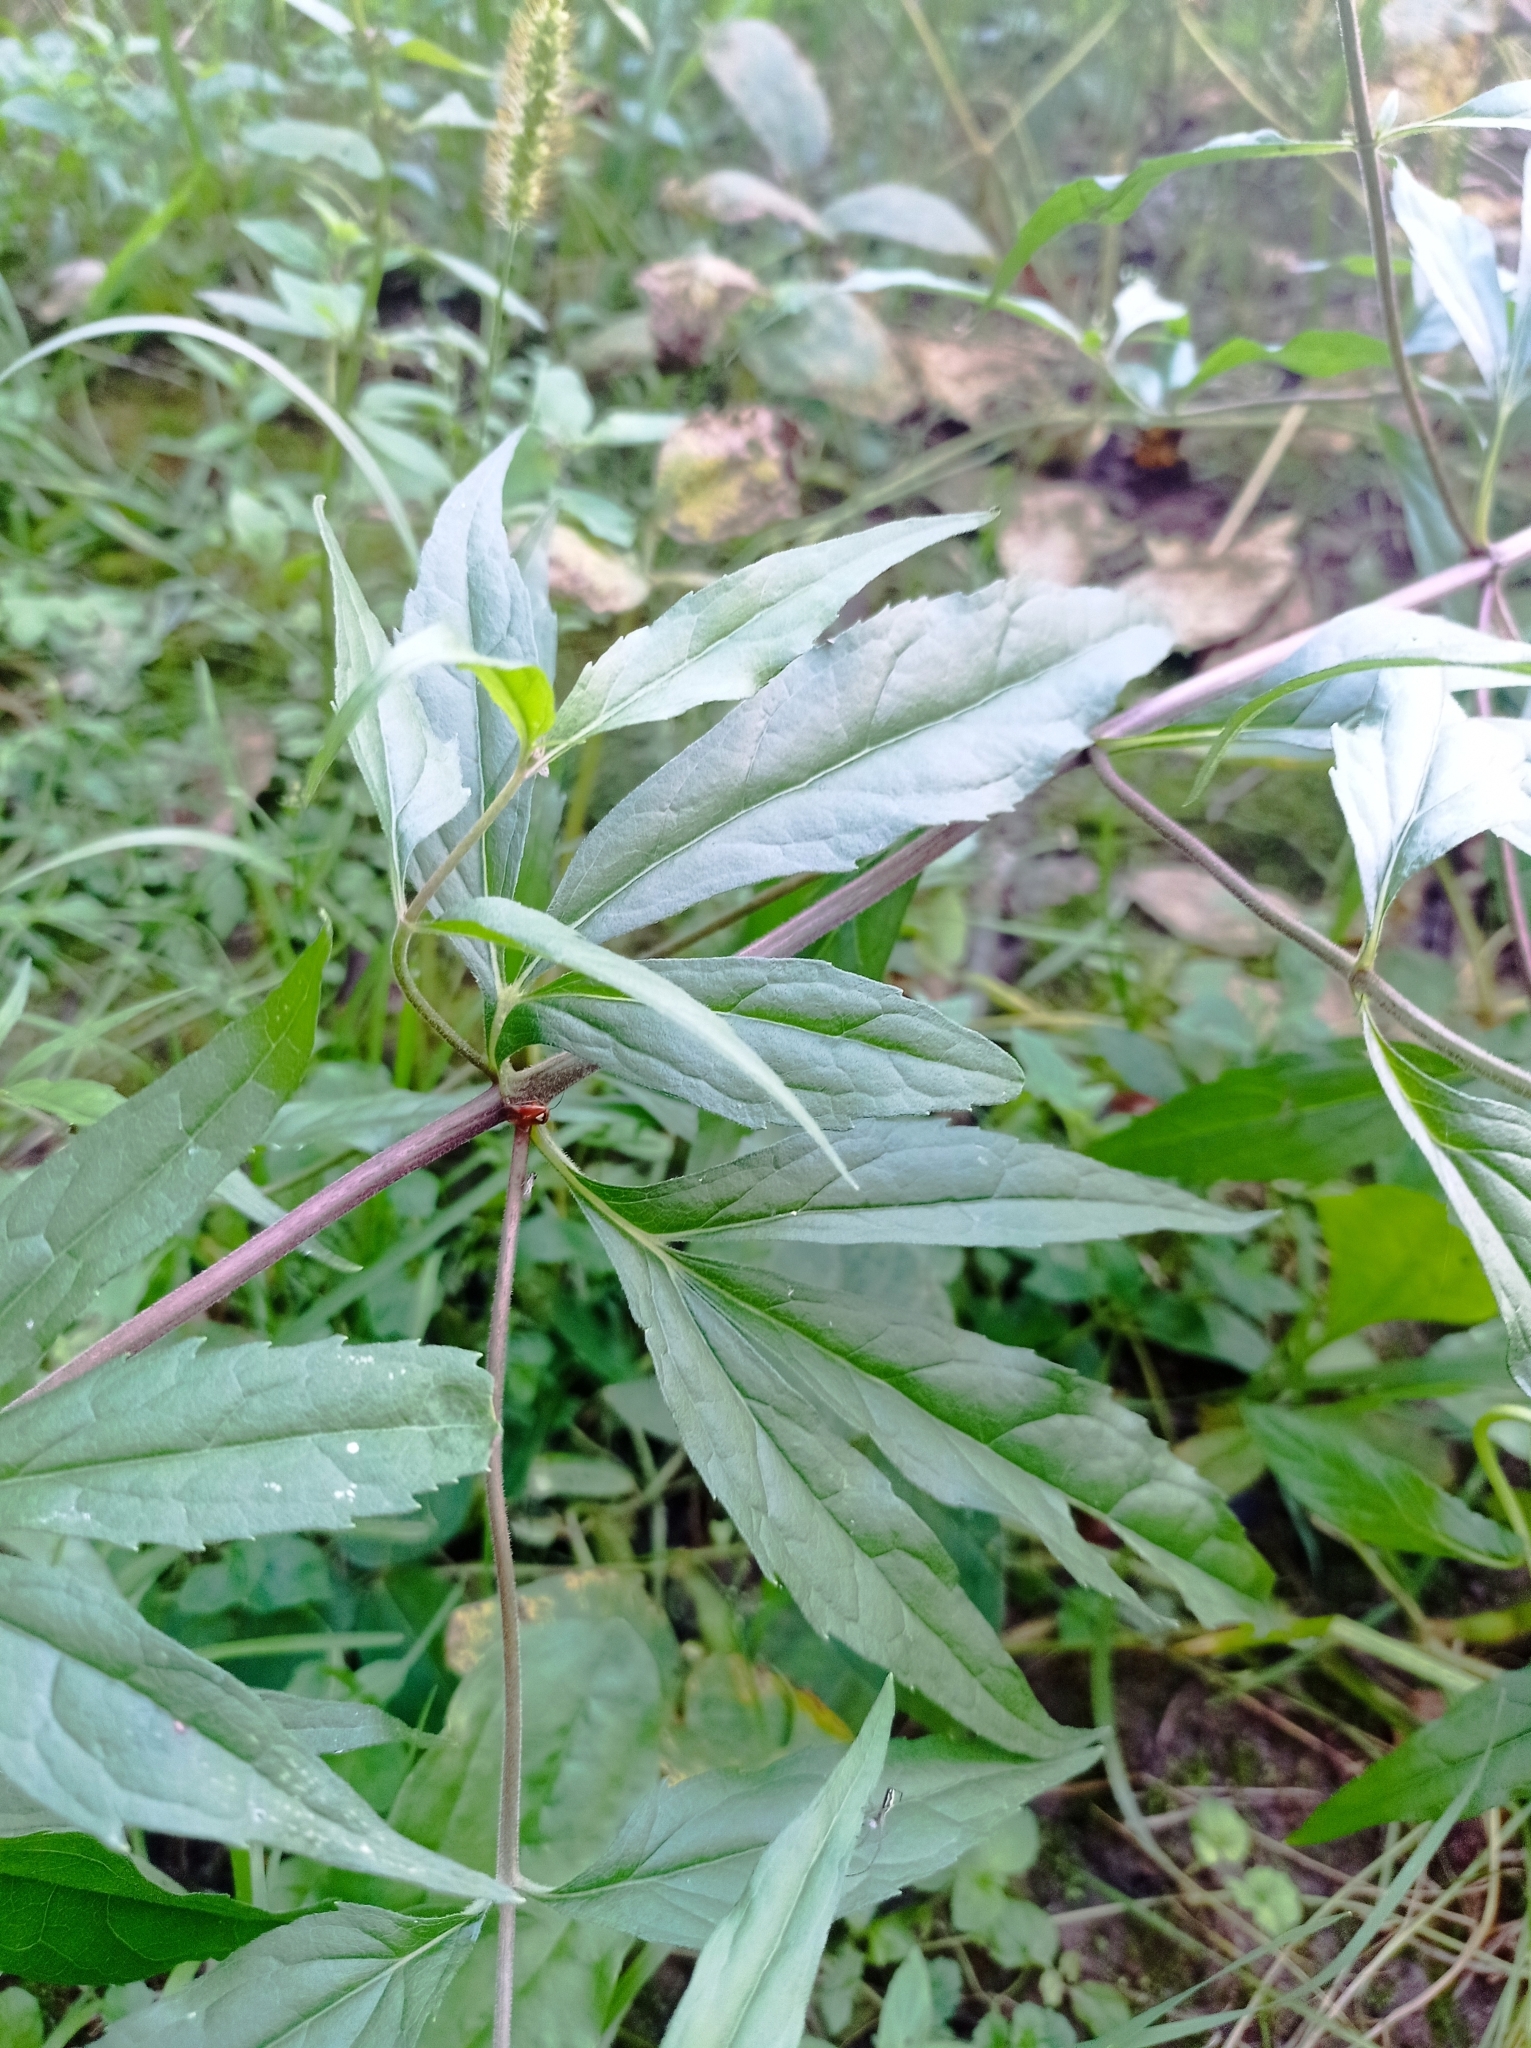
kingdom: Plantae
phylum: Tracheophyta
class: Magnoliopsida
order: Asterales
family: Asteraceae
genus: Eupatorium
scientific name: Eupatorium cannabinum
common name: Hemp-agrimony
